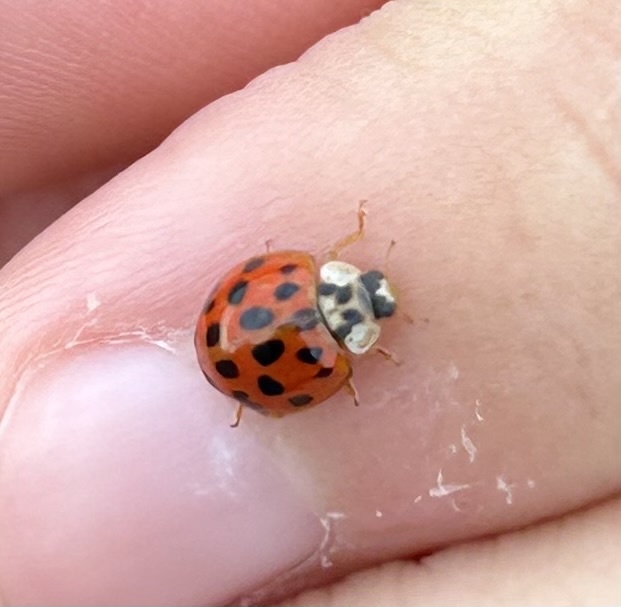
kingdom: Animalia
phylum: Arthropoda
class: Insecta
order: Coleoptera
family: Coccinellidae
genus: Harmonia
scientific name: Harmonia axyridis
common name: Harlequin ladybird
